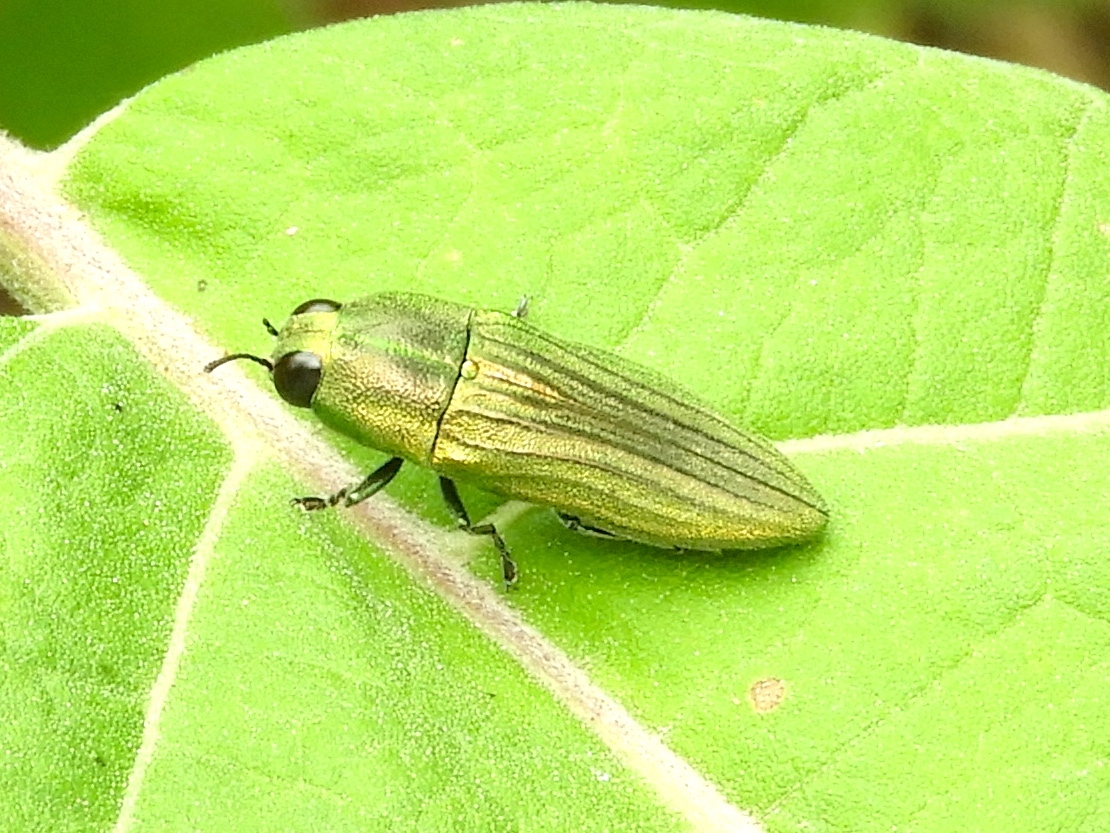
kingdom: Animalia
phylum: Arthropoda
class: Insecta
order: Coleoptera
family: Buprestidae
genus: Agaeocera
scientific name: Agaeocera scintillans
